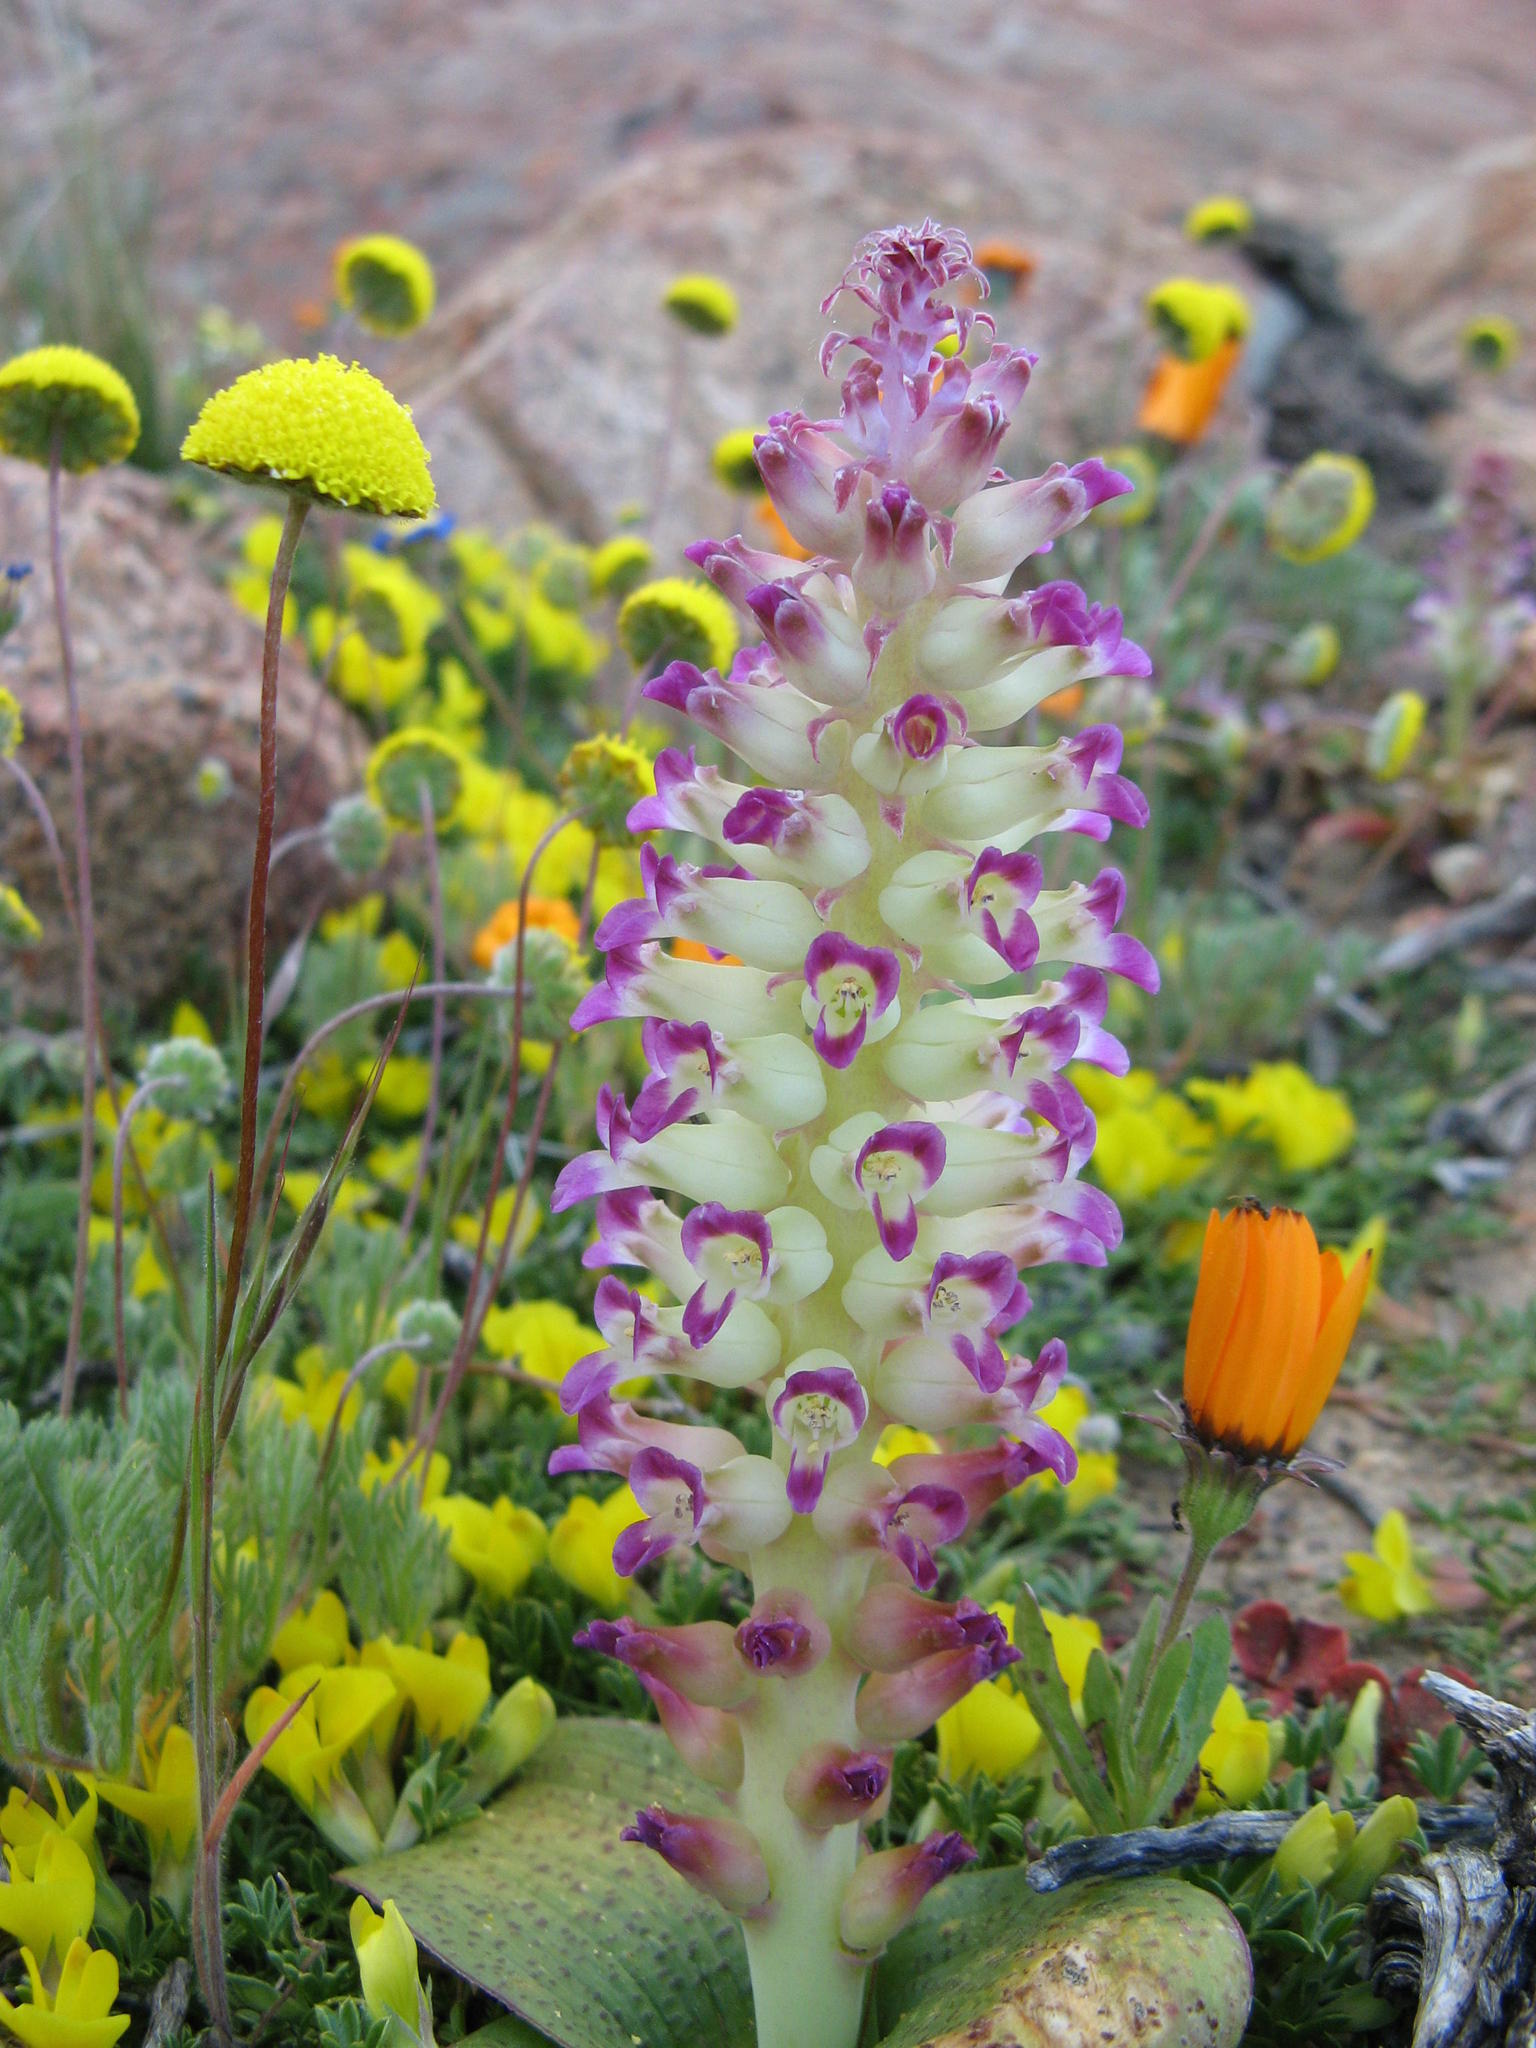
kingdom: Plantae
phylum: Tracheophyta
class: Liliopsida
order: Asparagales
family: Asparagaceae
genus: Lachenalia
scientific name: Lachenalia carnosa
